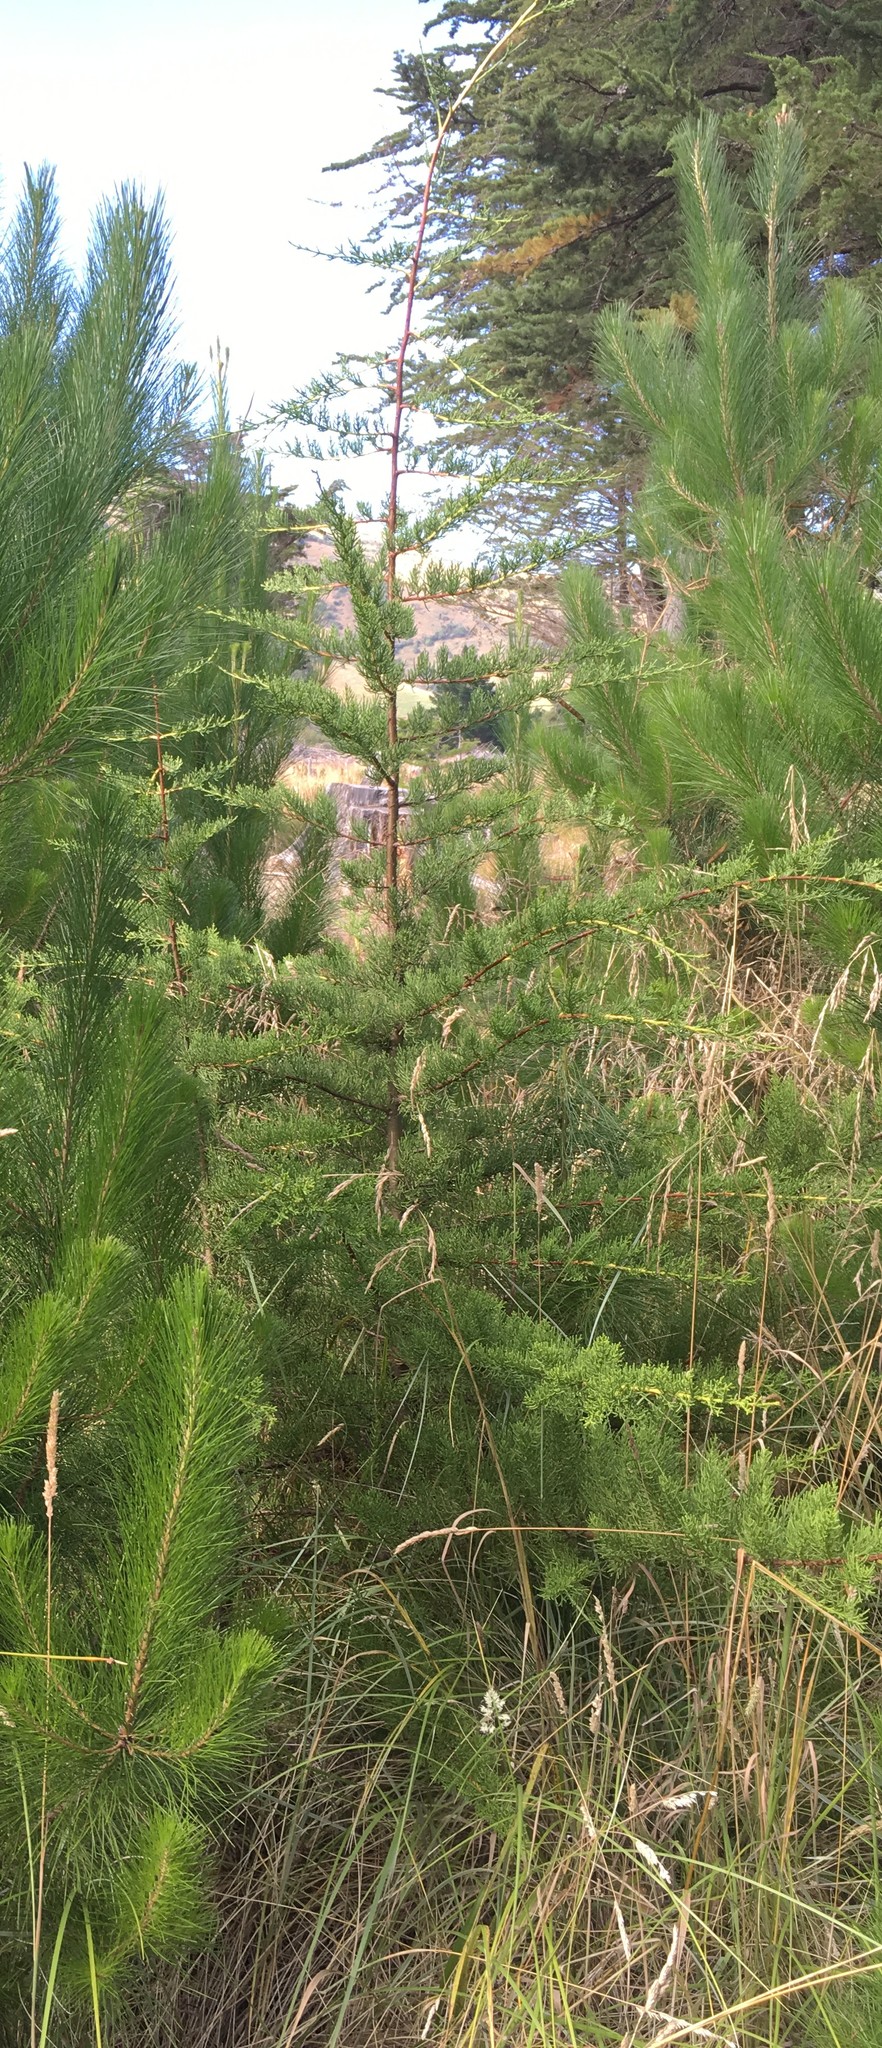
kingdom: Plantae
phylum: Tracheophyta
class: Pinopsida
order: Pinales
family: Cupressaceae
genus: Cupressus
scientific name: Cupressus macrocarpa
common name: Monterey cypress
